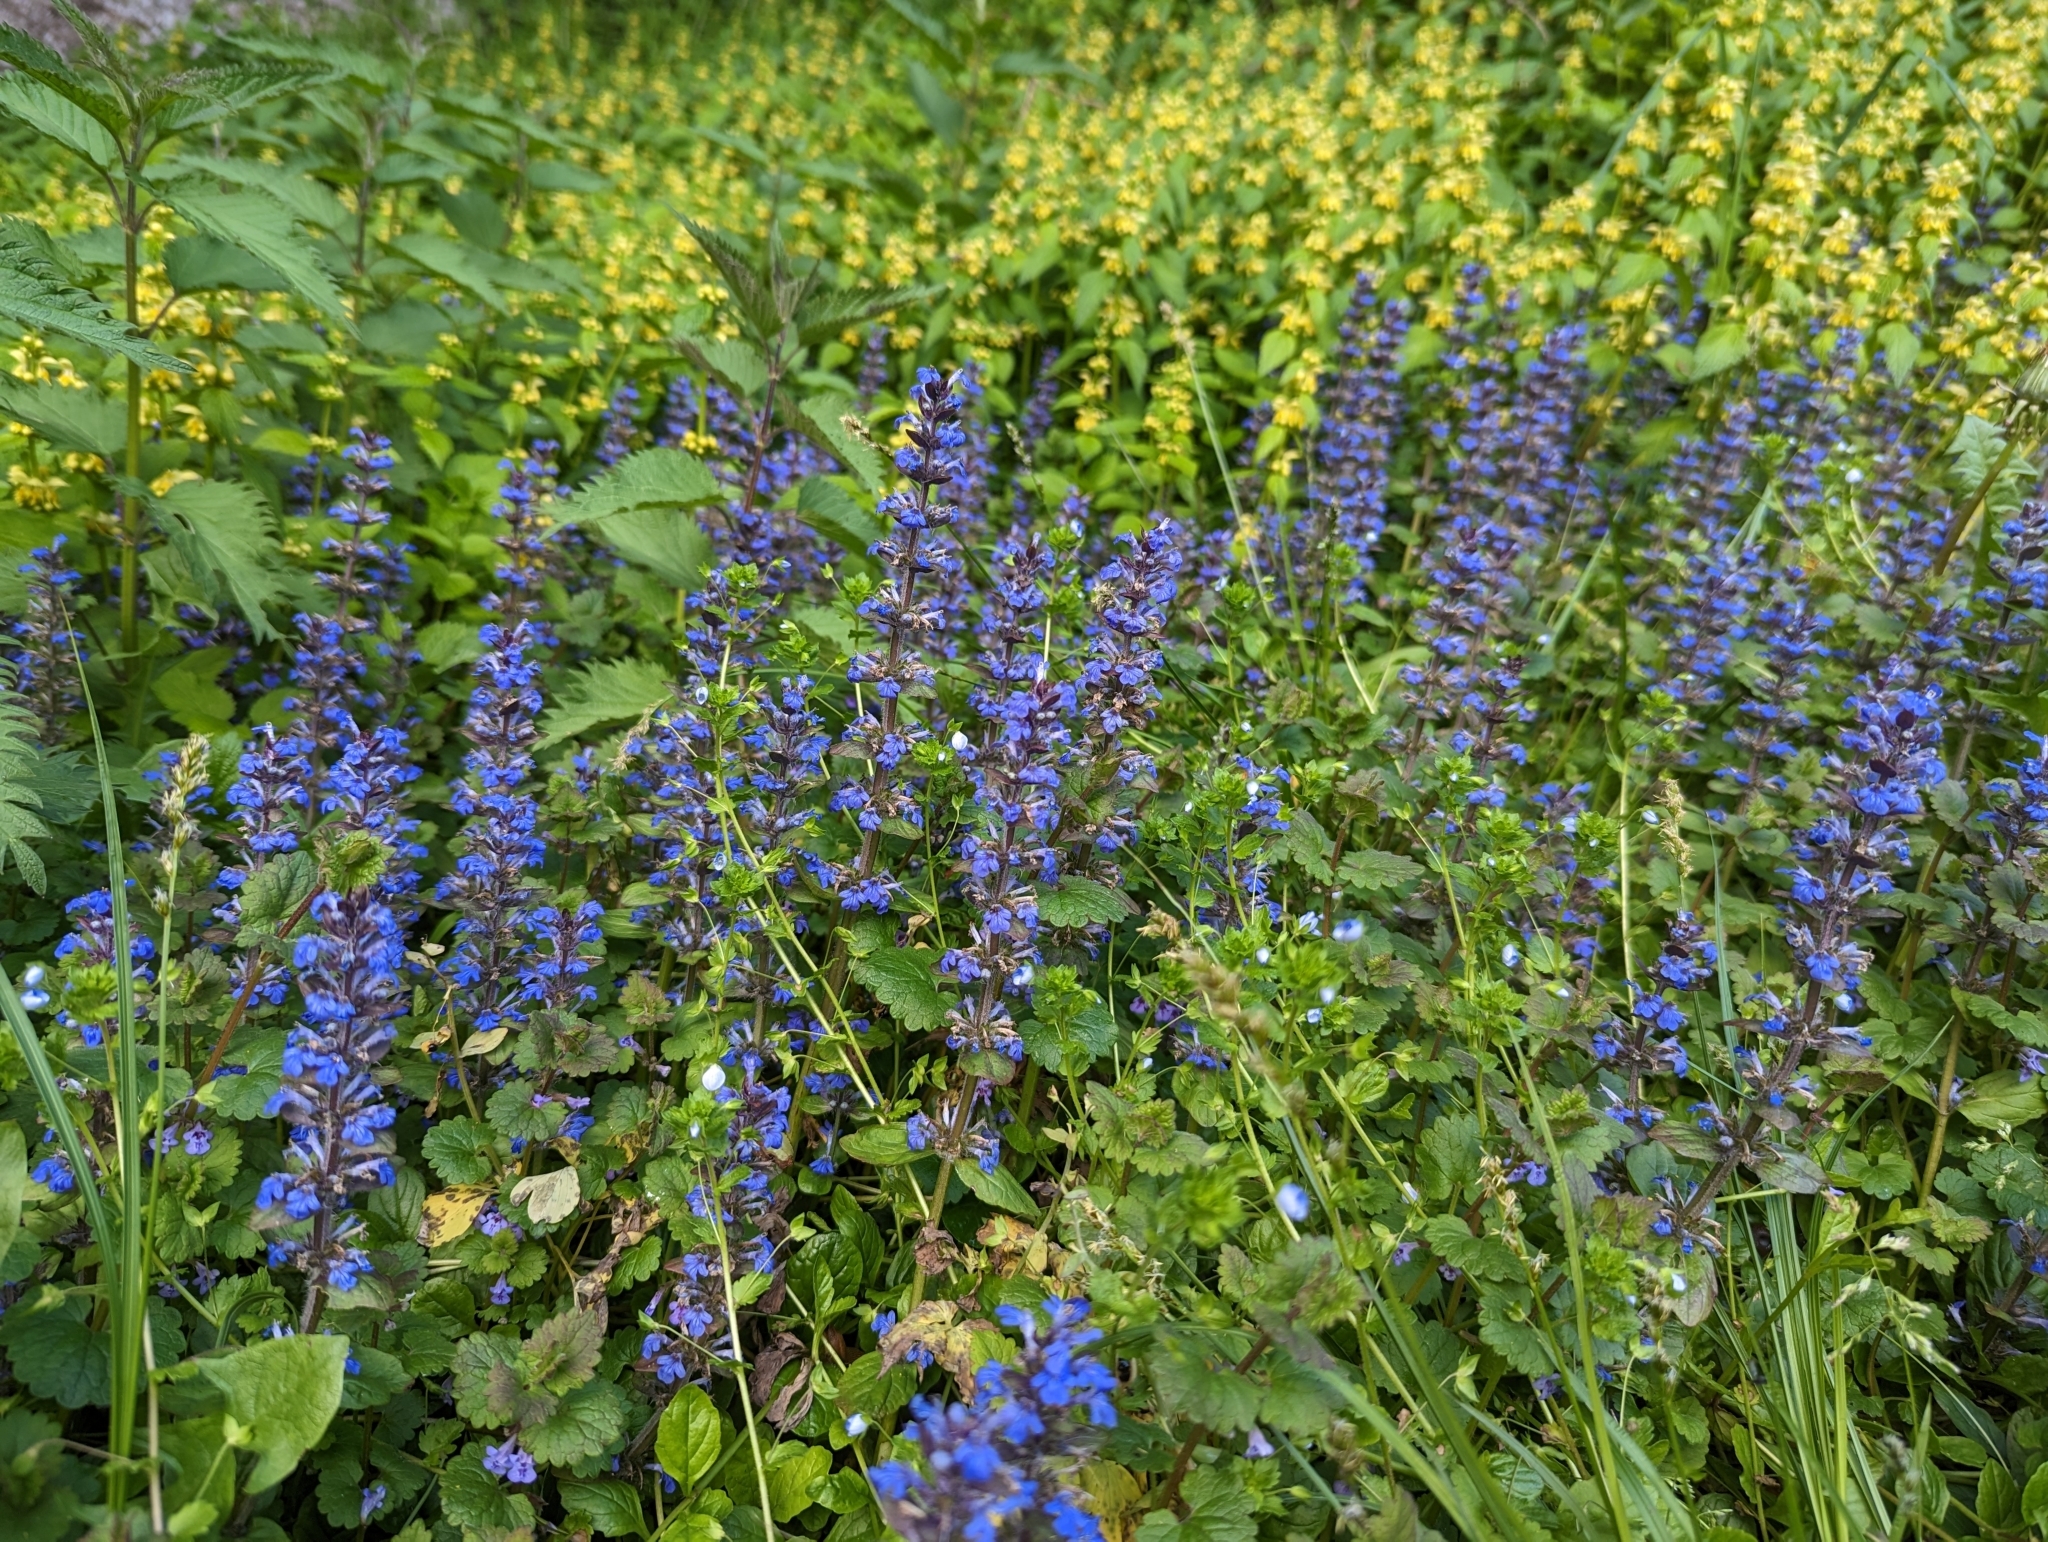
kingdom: Plantae
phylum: Tracheophyta
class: Magnoliopsida
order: Lamiales
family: Lamiaceae
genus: Ajuga
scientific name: Ajuga reptans
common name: Bugle
